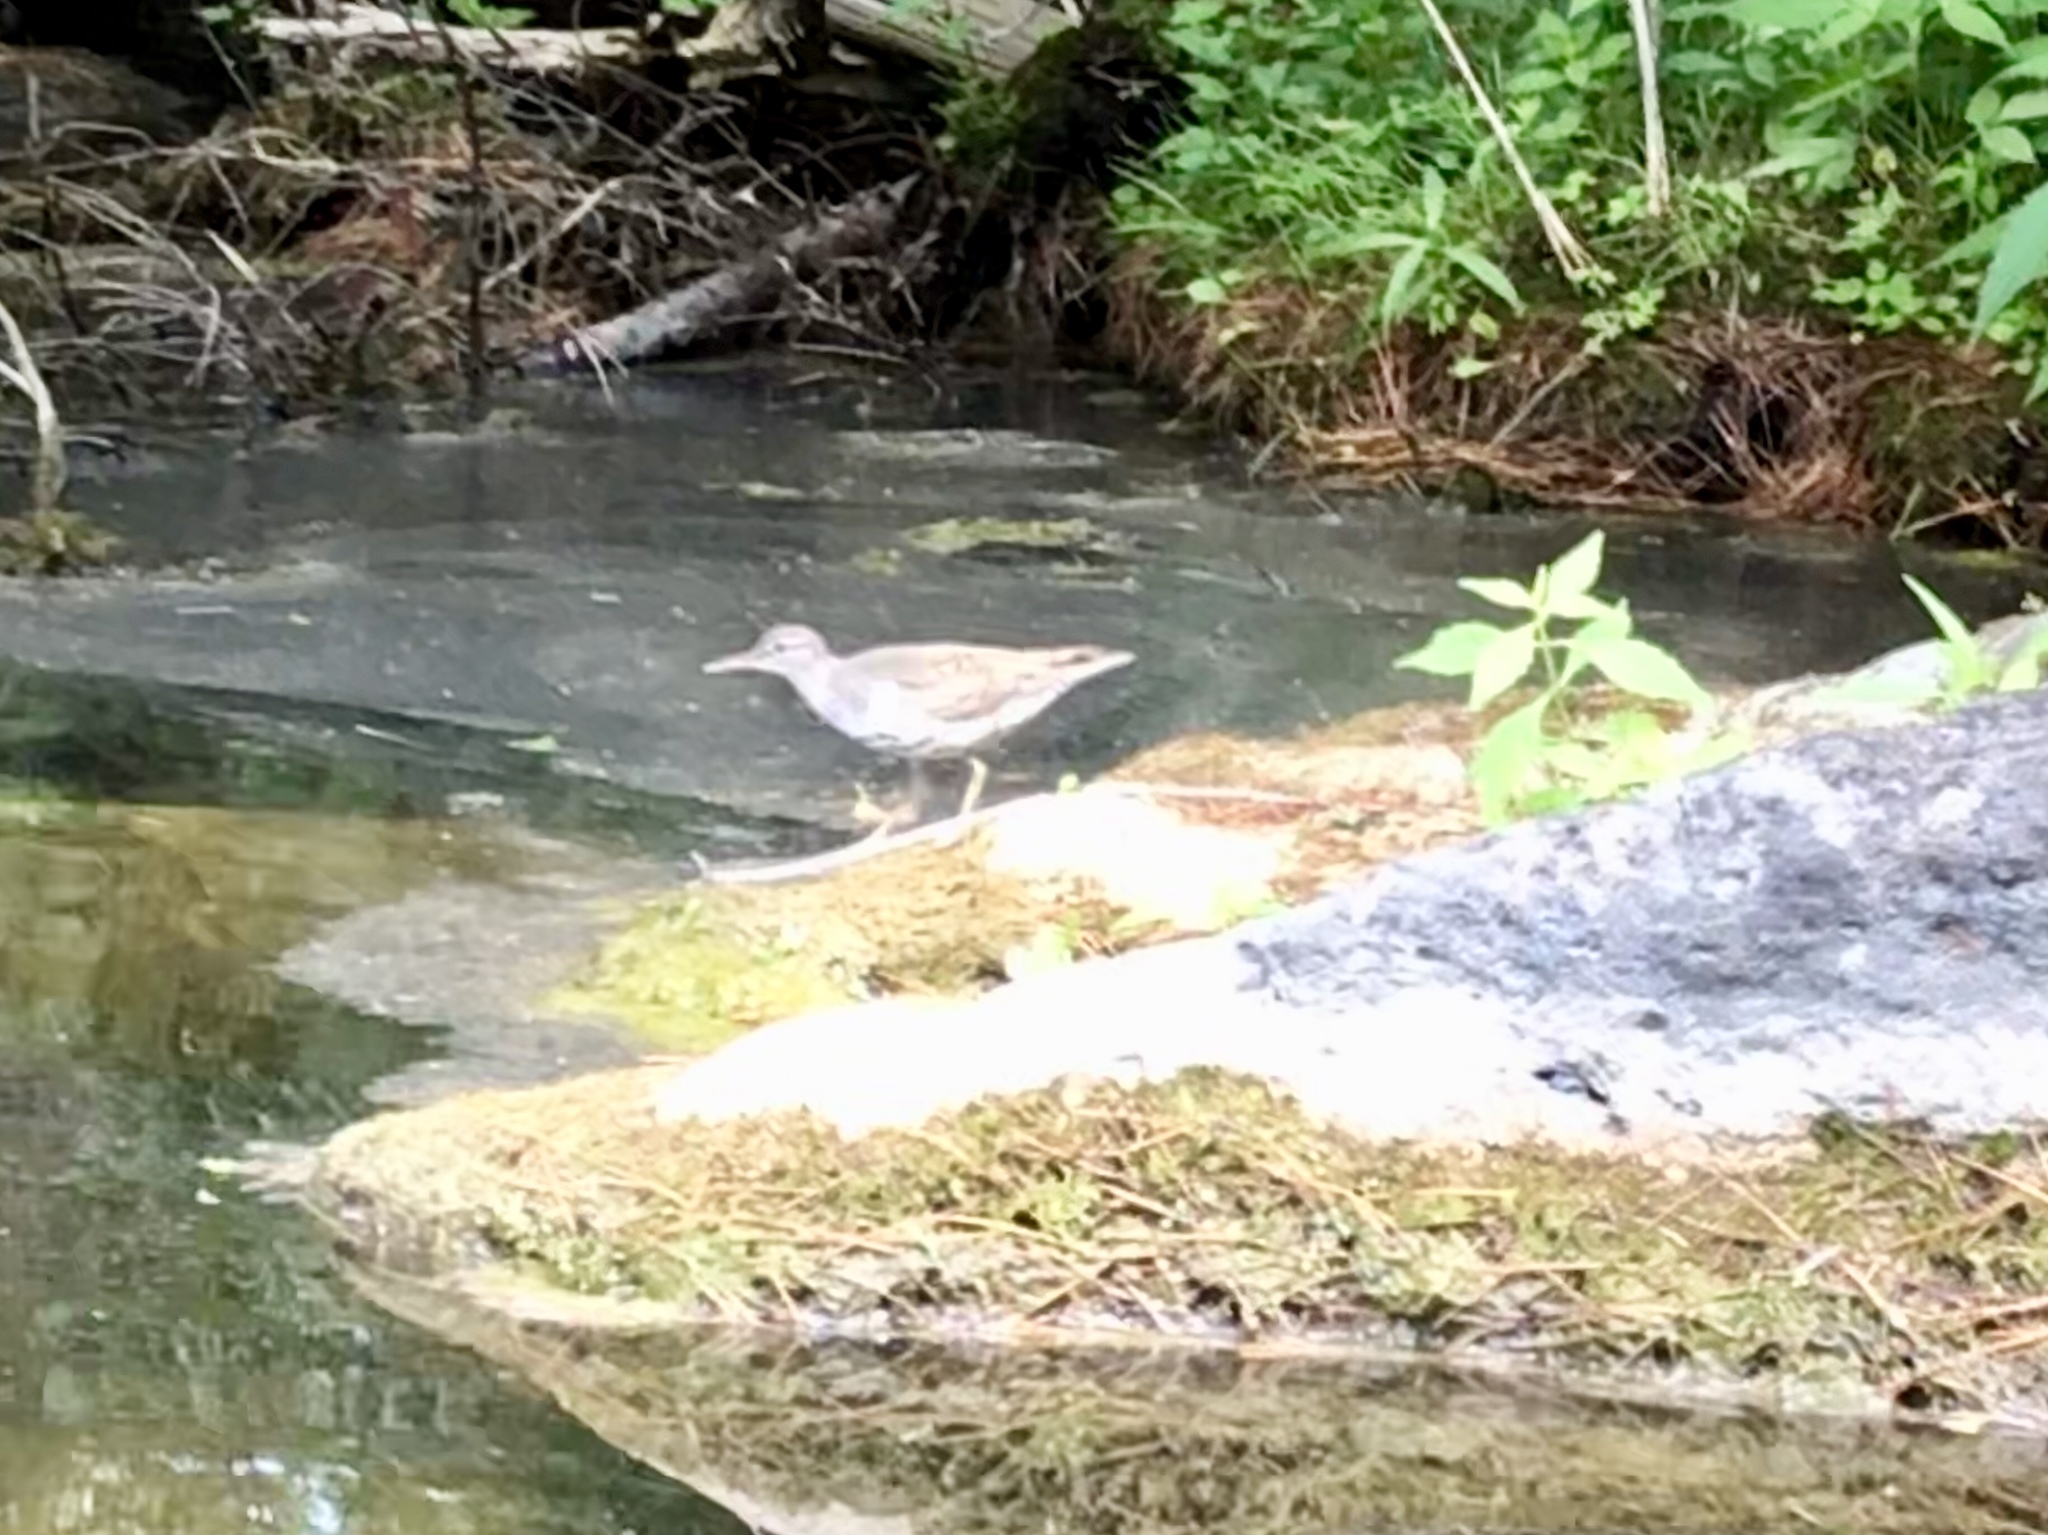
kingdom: Animalia
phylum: Chordata
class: Aves
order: Charadriiformes
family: Scolopacidae
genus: Actitis
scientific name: Actitis macularius
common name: Spotted sandpiper
